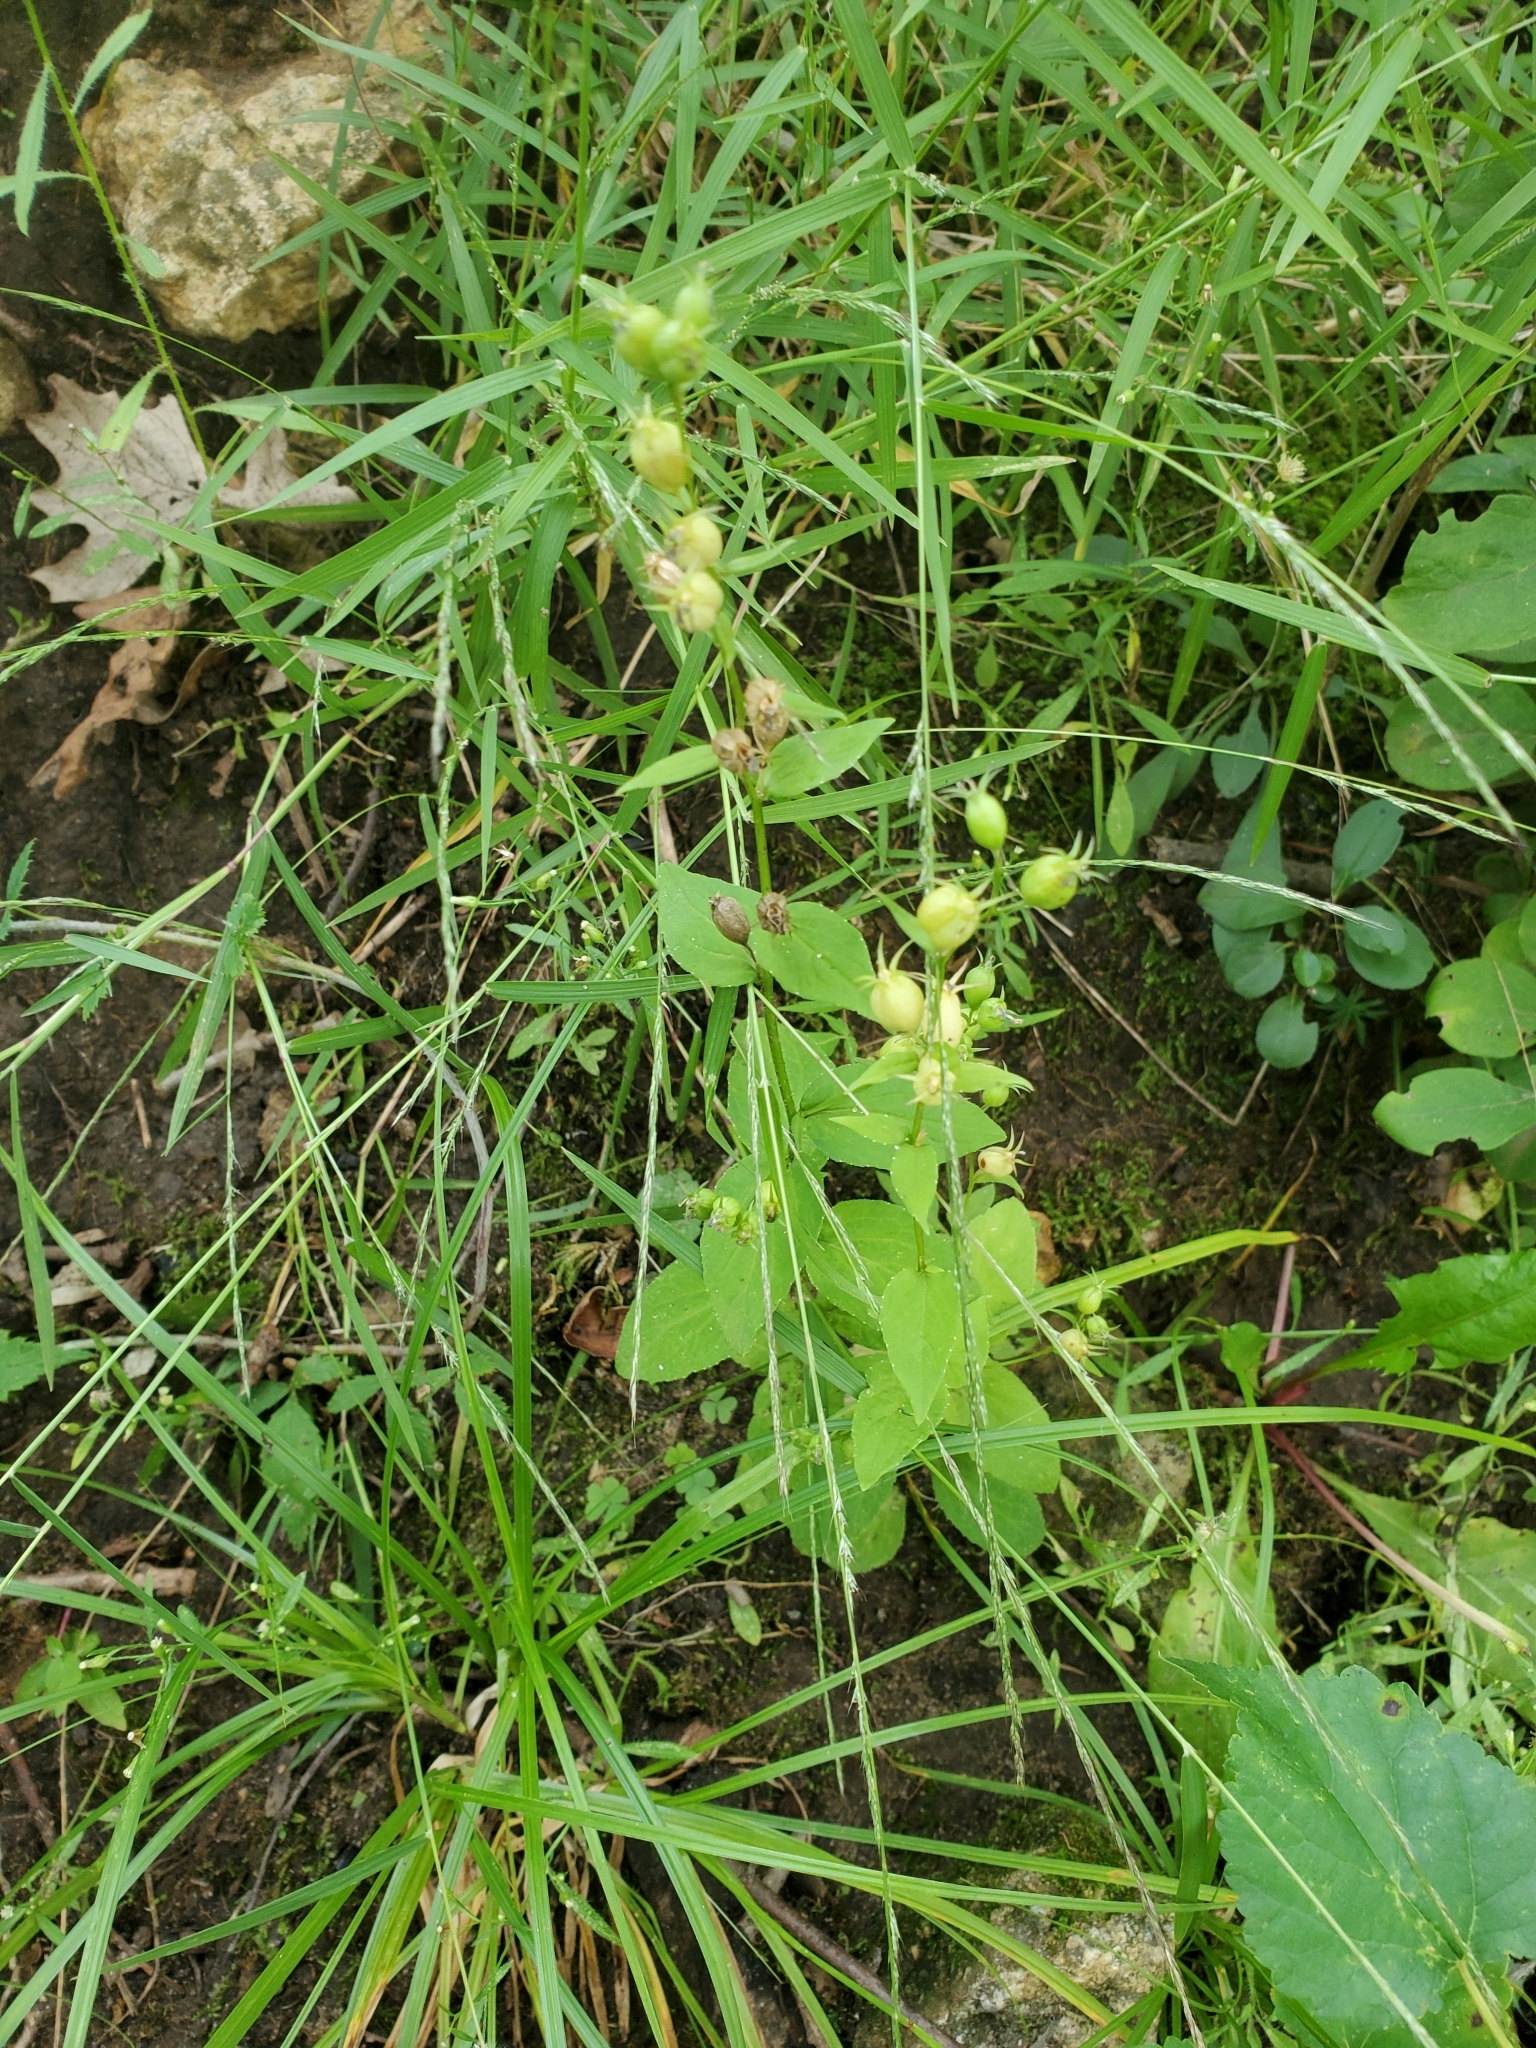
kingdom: Plantae
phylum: Tracheophyta
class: Magnoliopsida
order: Asterales
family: Campanulaceae
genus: Lobelia
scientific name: Lobelia inflata
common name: Indian tobacco
